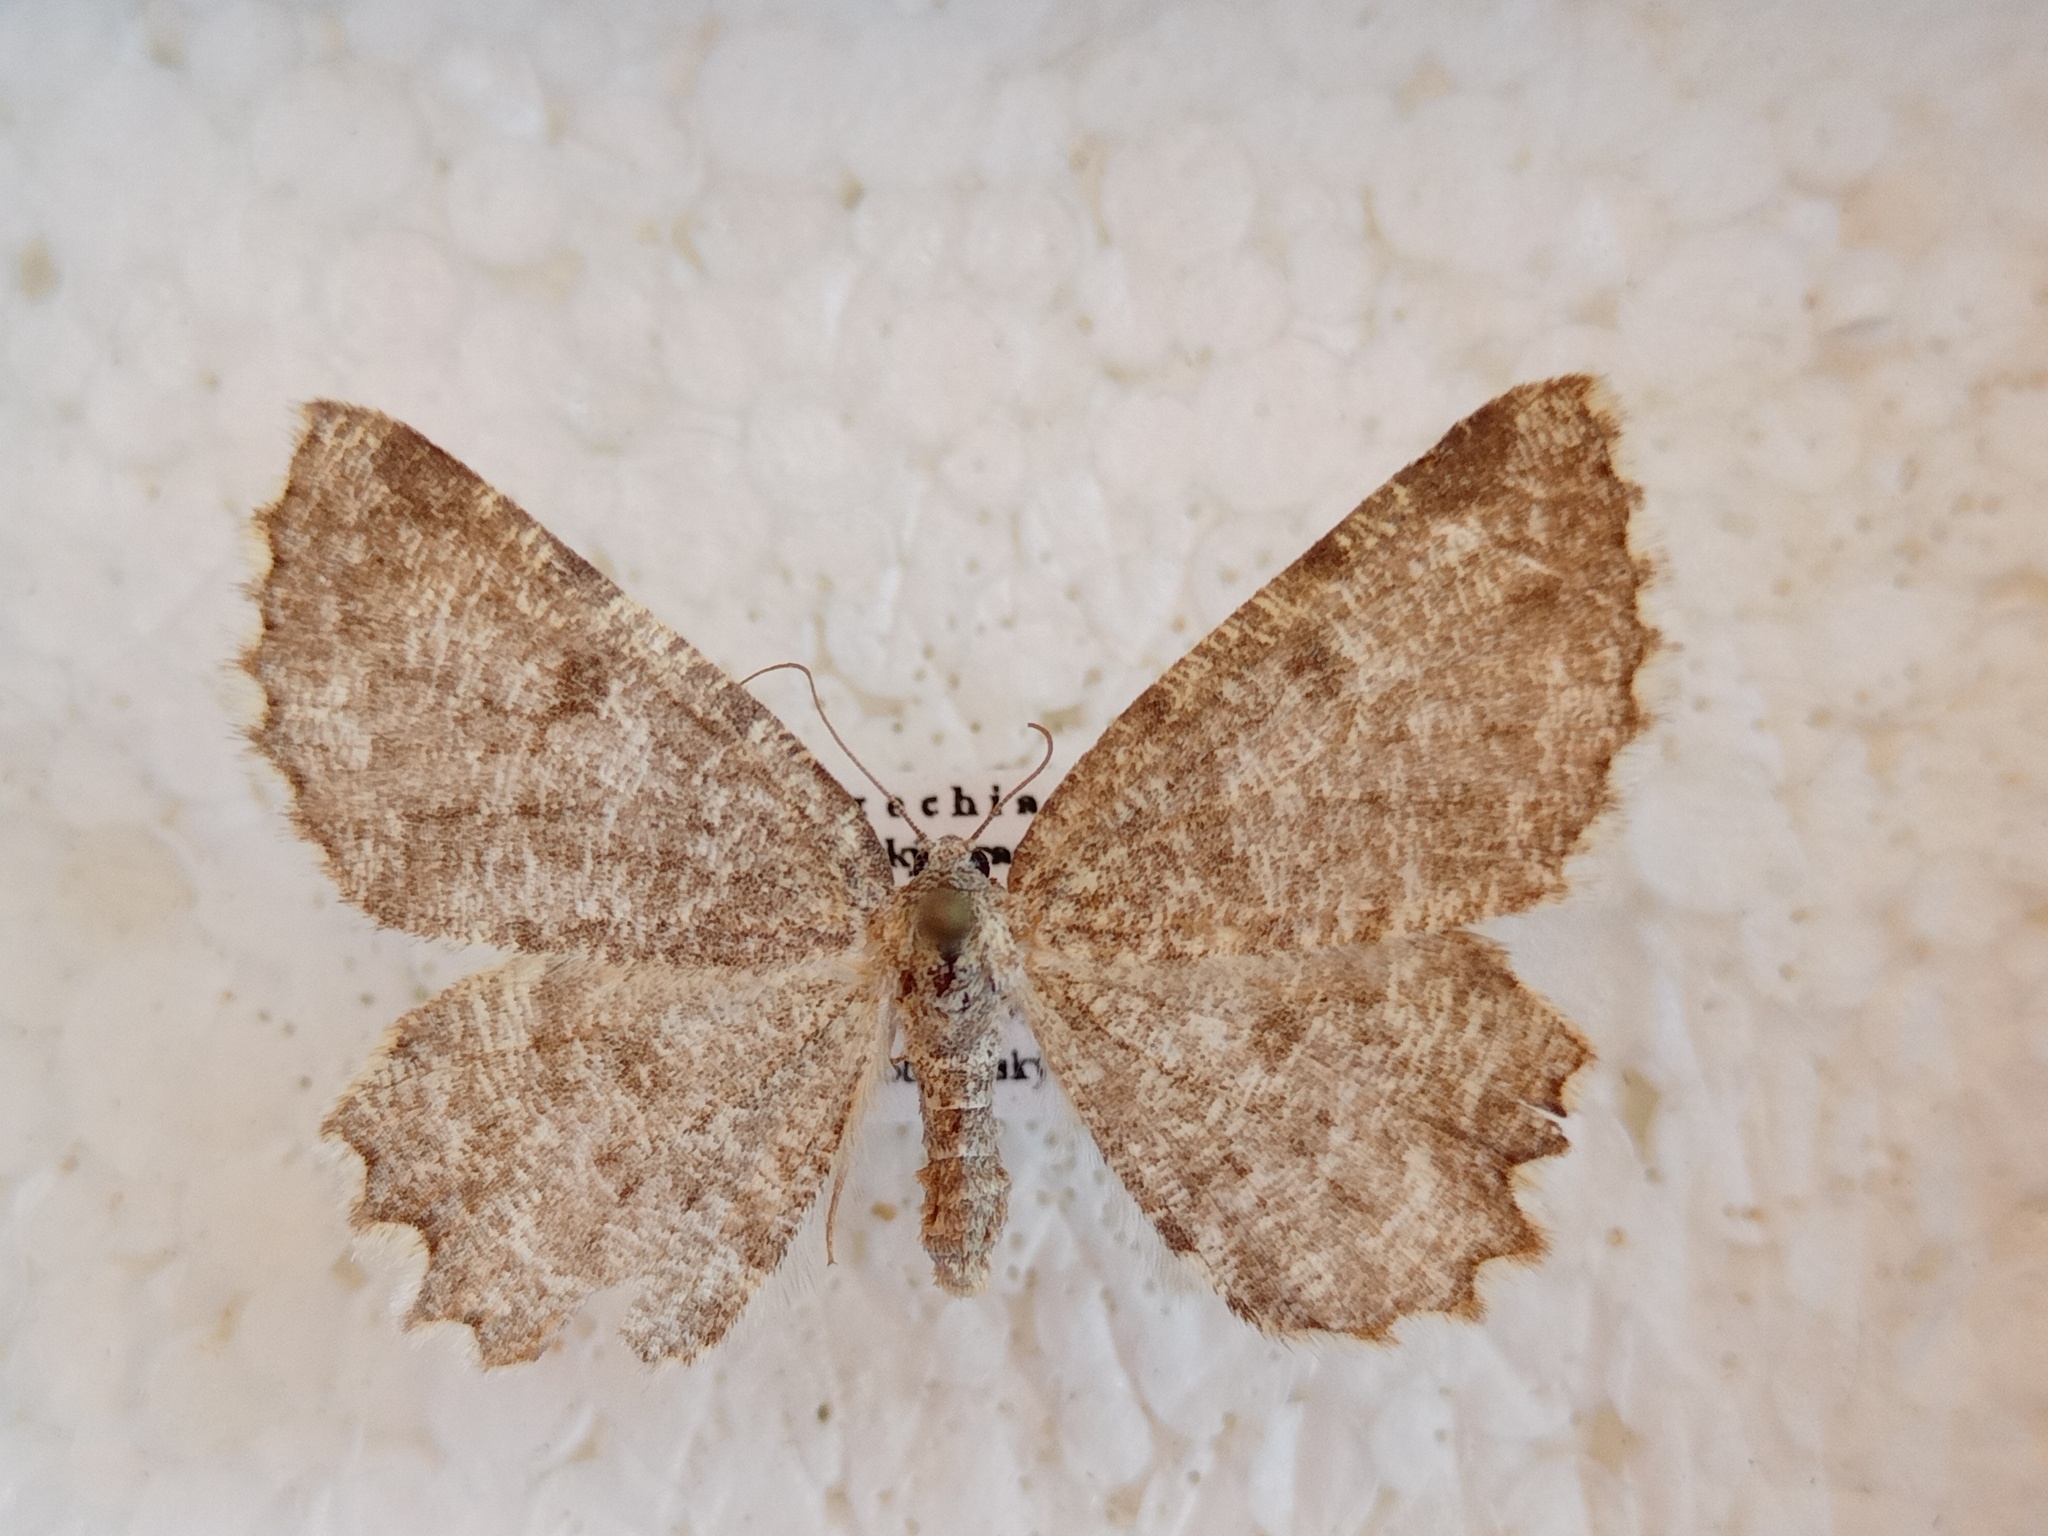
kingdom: Animalia
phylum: Arthropoda
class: Insecta
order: Lepidoptera
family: Geometridae
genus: Charissa
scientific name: Charissa supinaria
